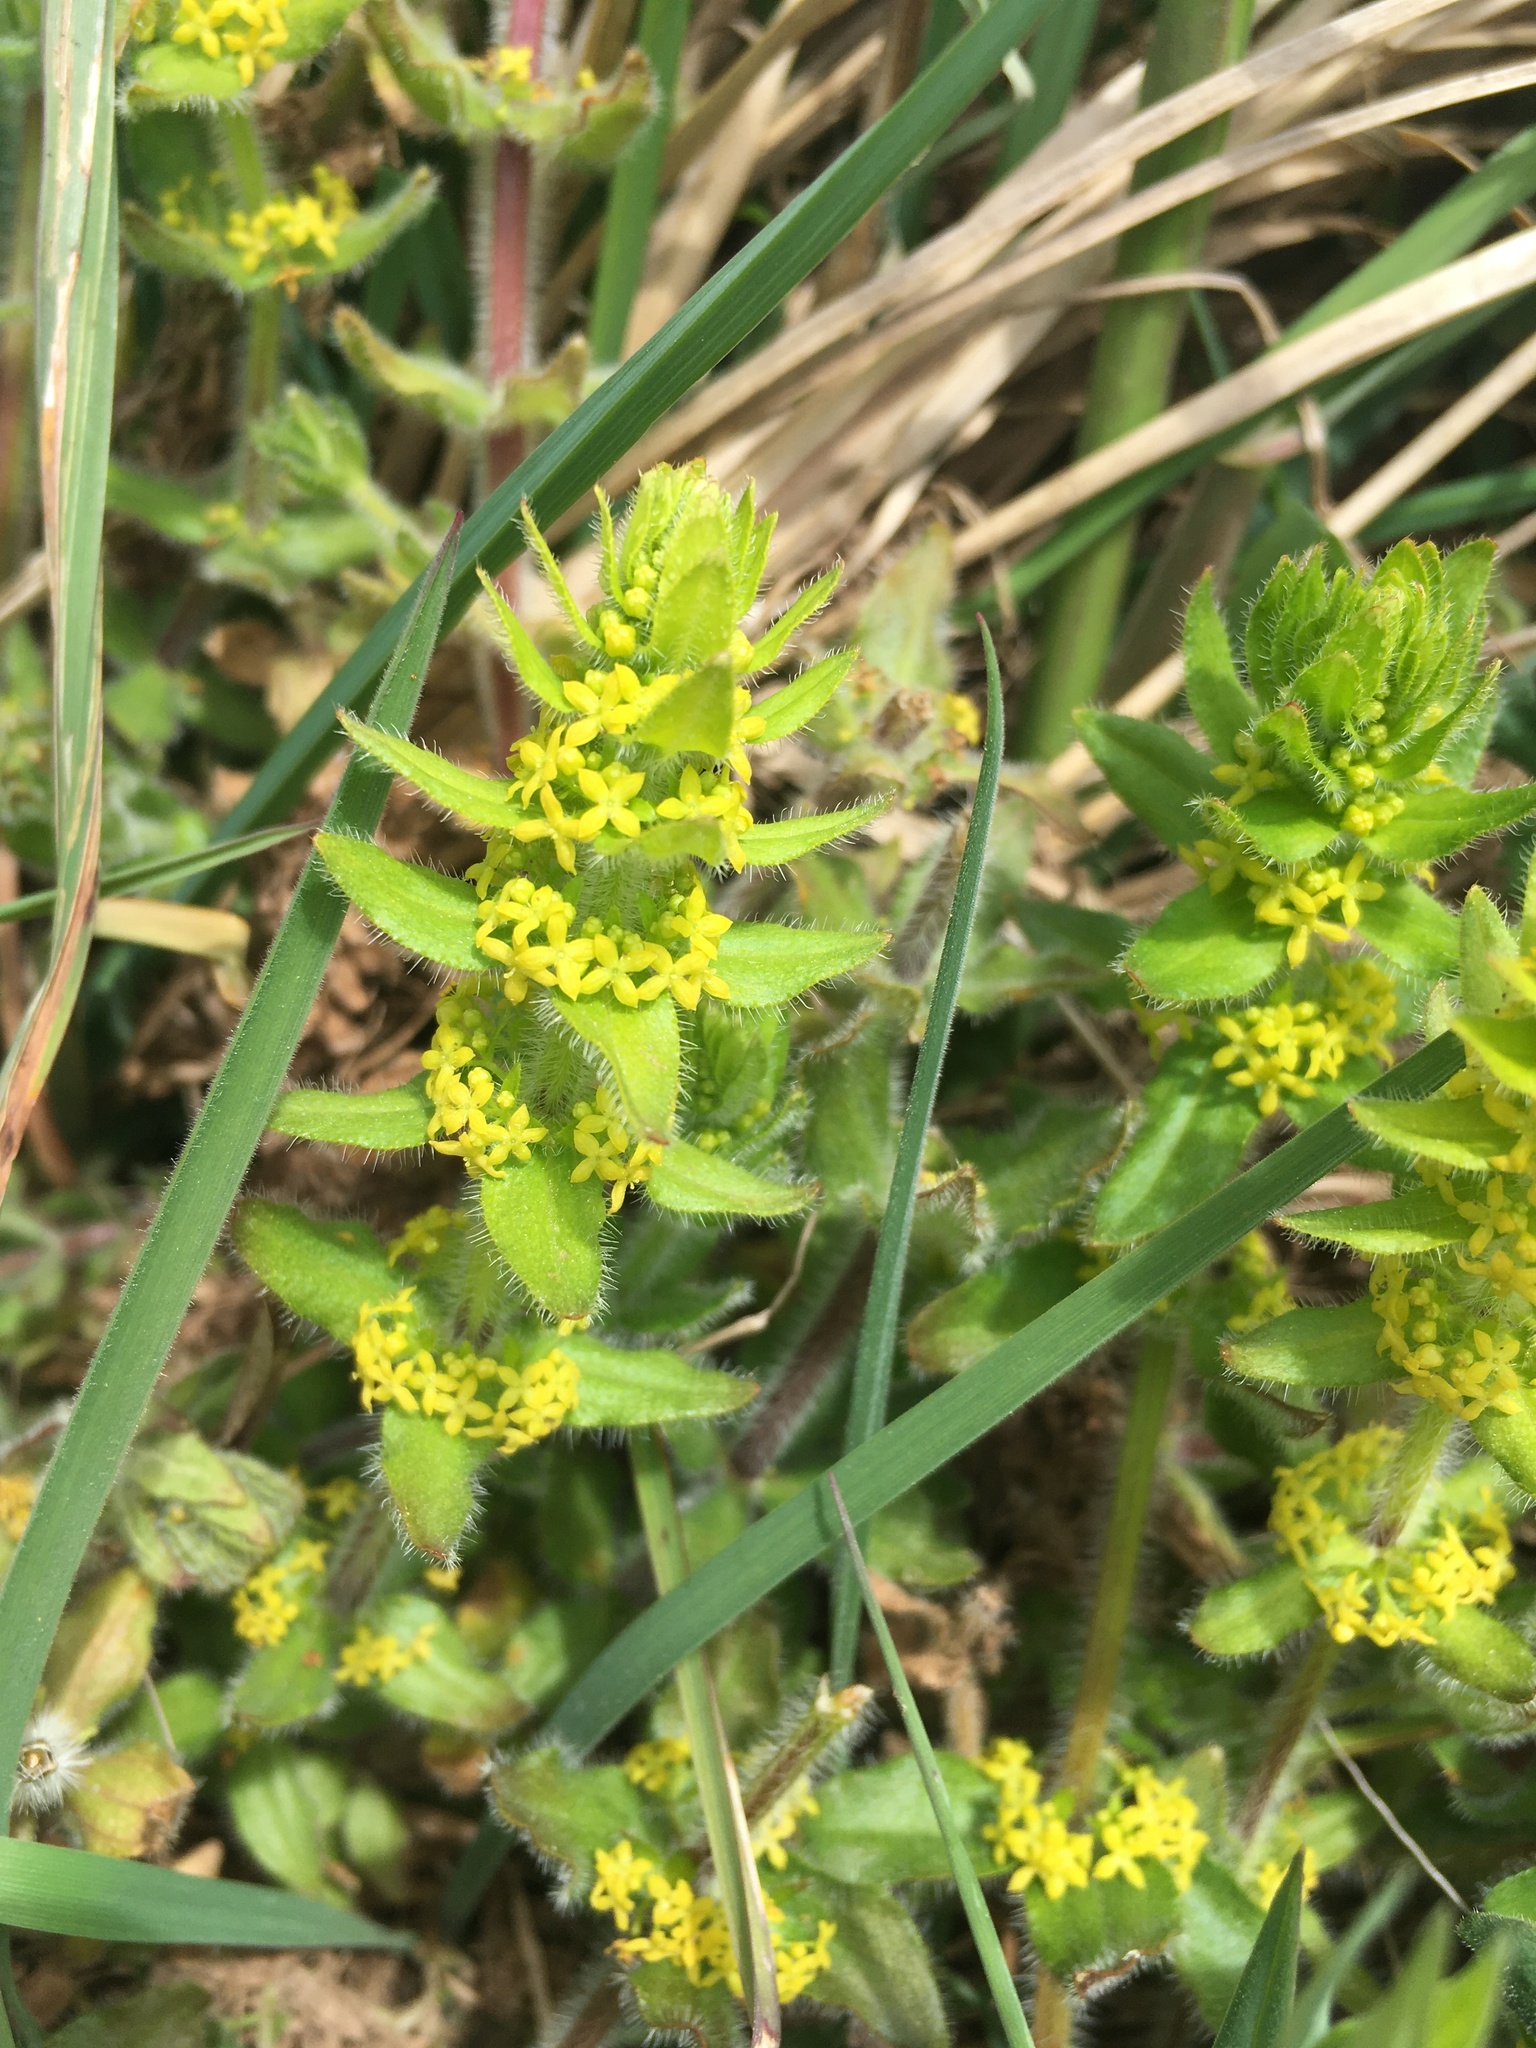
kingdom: Plantae
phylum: Tracheophyta
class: Magnoliopsida
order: Gentianales
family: Rubiaceae
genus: Cruciata
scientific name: Cruciata laevipes
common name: Crosswort
